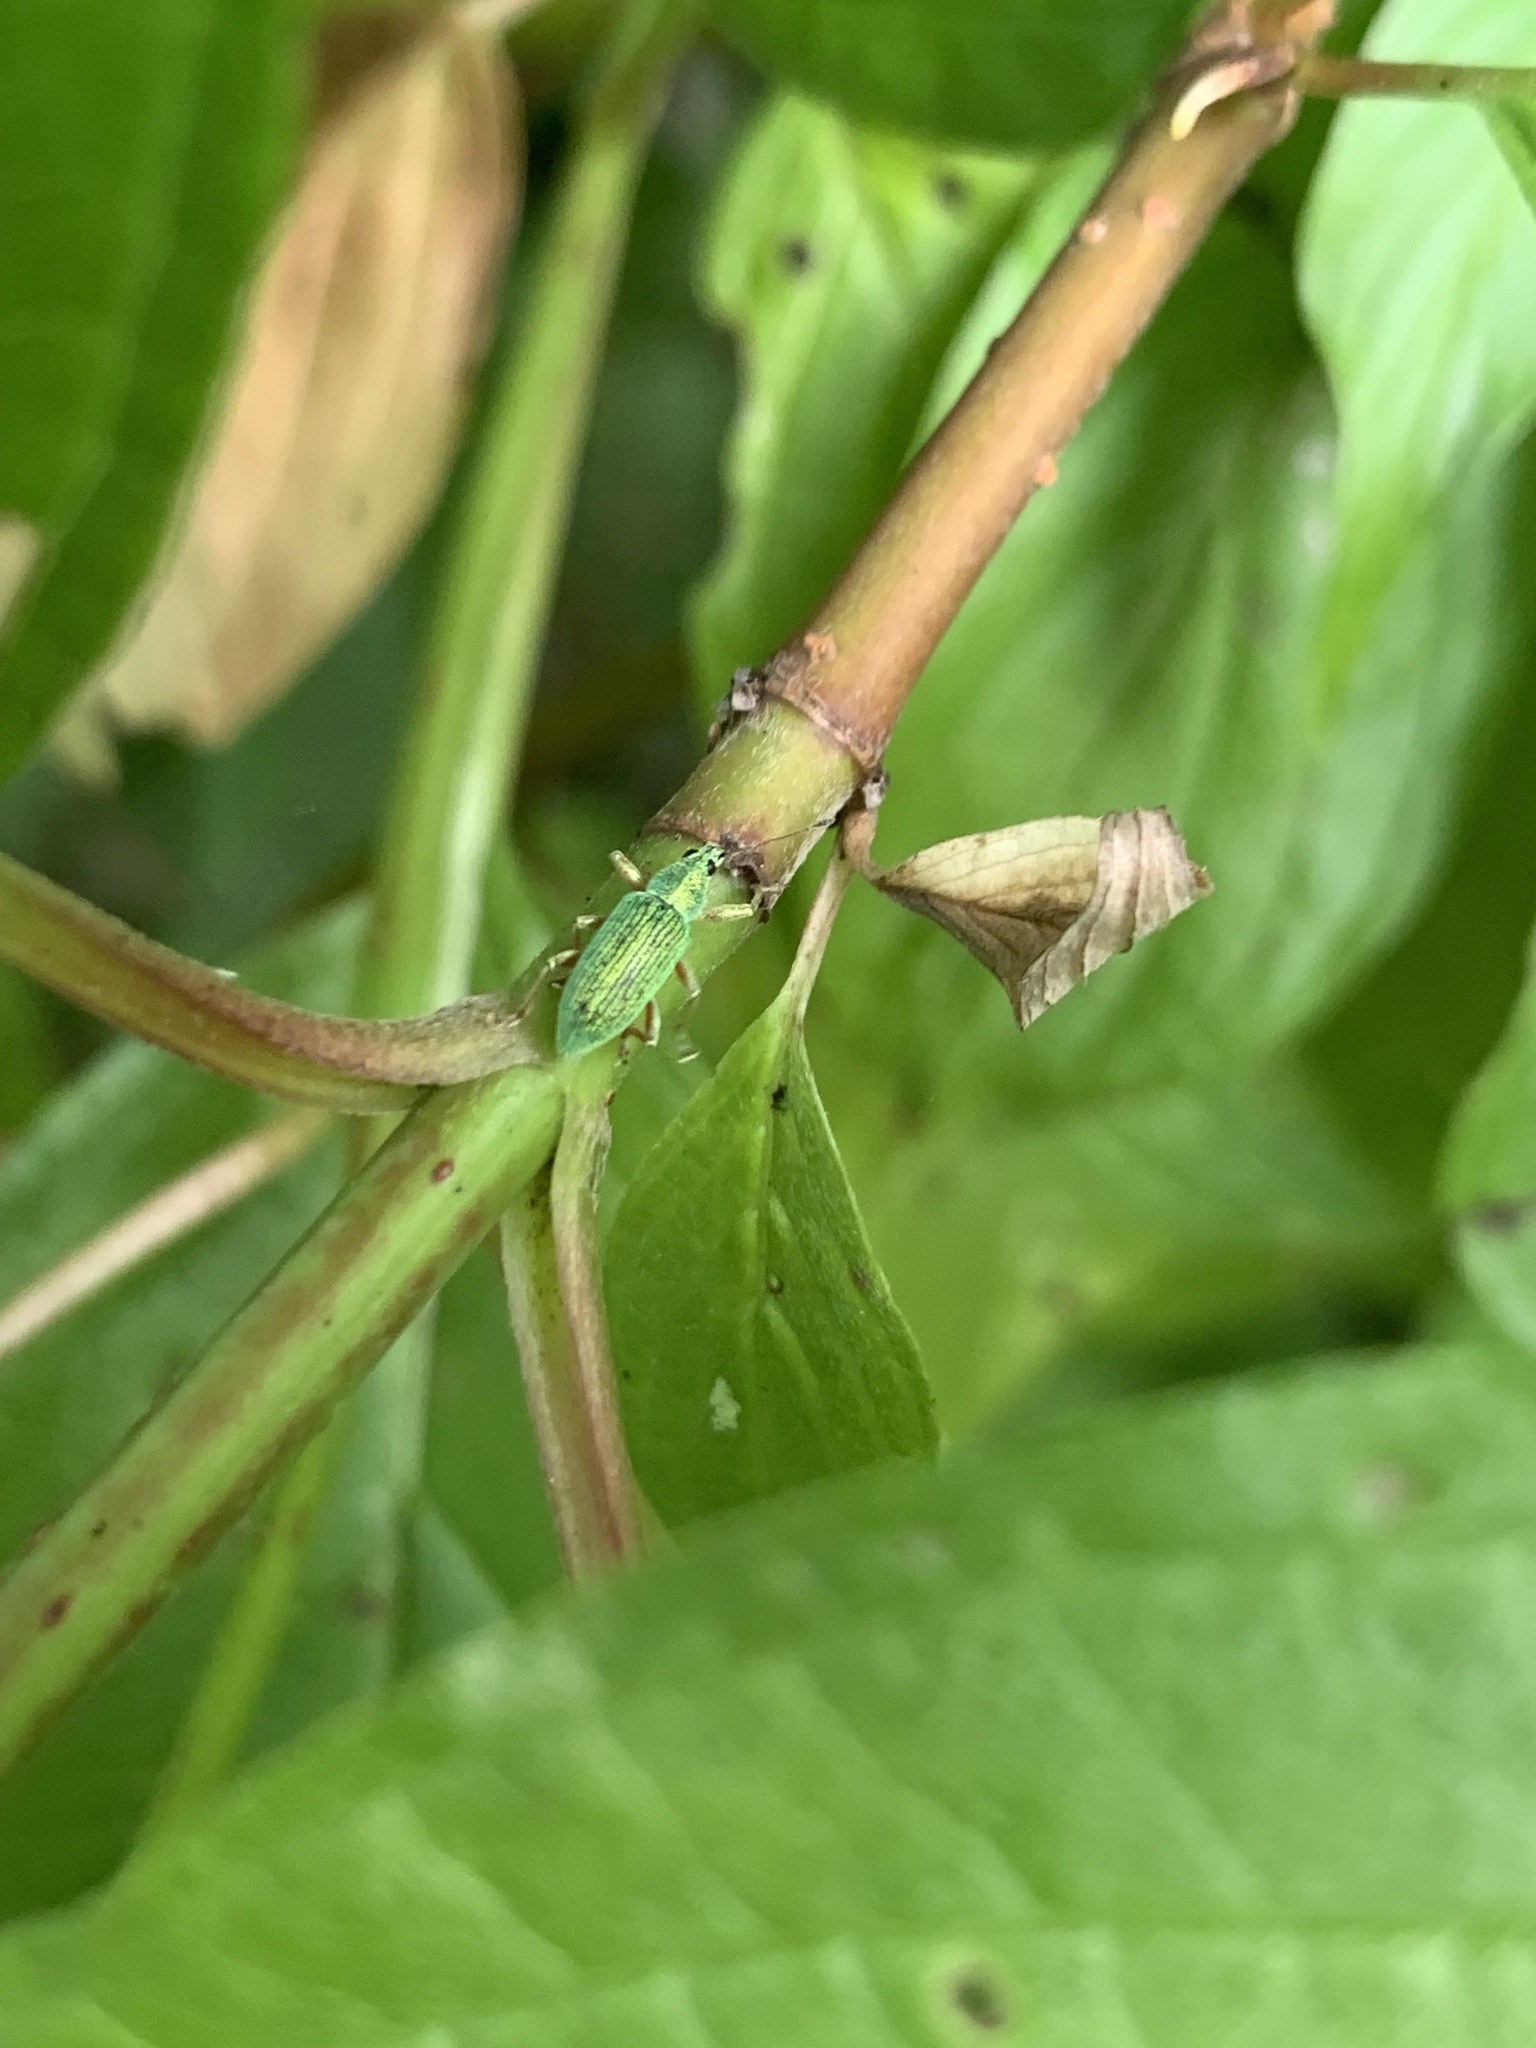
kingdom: Animalia
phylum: Arthropoda
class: Insecta
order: Coleoptera
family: Curculionidae
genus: Polydrusus
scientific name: Polydrusus formosus
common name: Weevil
